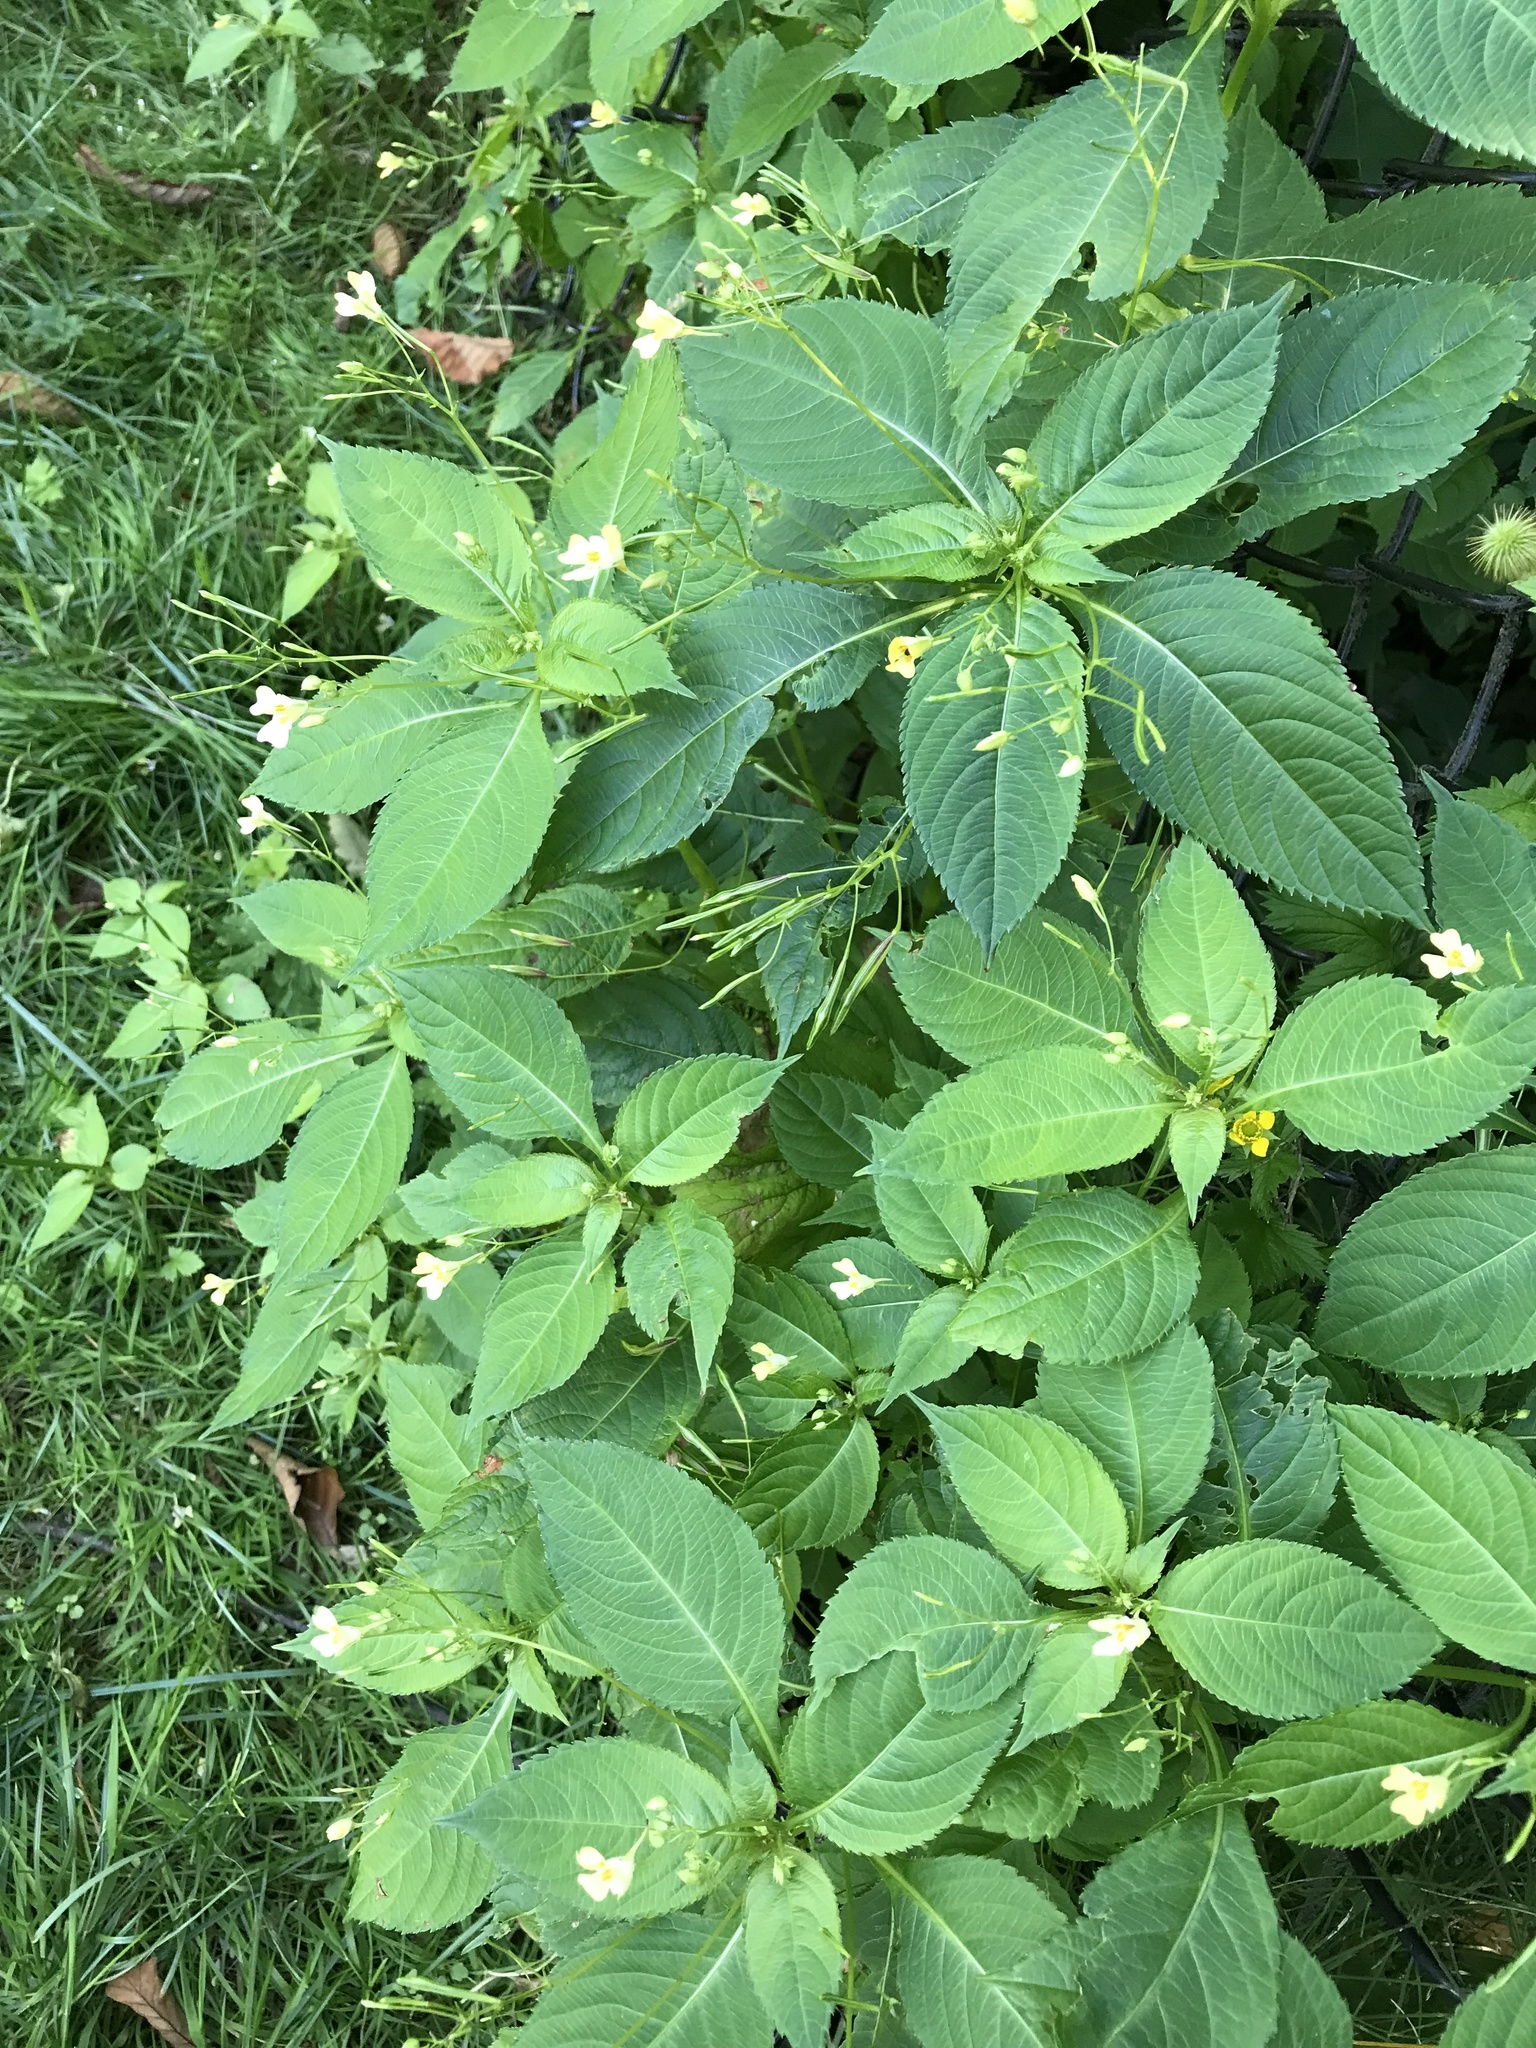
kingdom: Plantae
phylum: Tracheophyta
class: Magnoliopsida
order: Ericales
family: Balsaminaceae
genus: Impatiens
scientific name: Impatiens parviflora
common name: Small balsam
